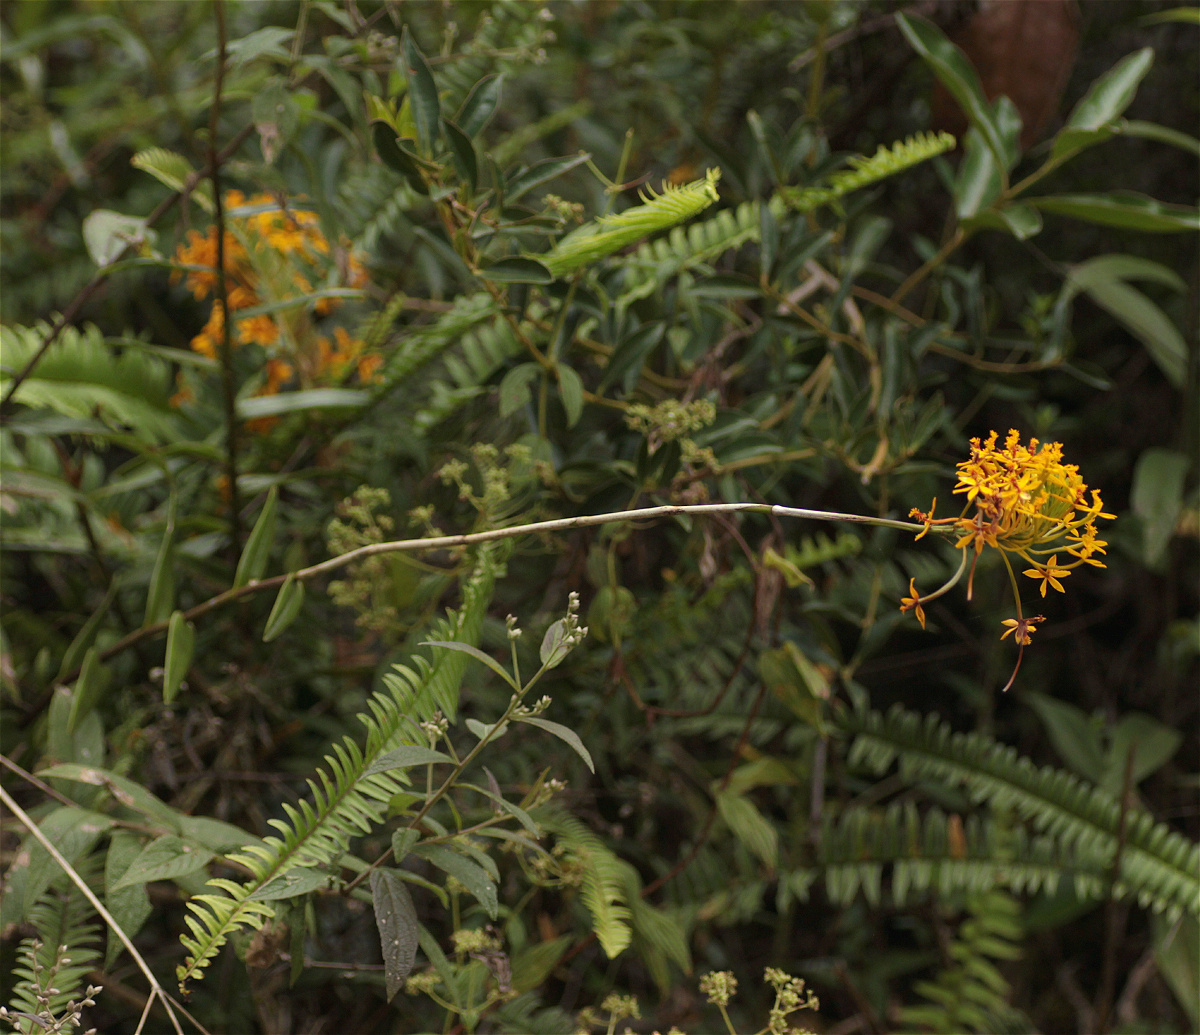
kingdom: Plantae
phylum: Tracheophyta
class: Liliopsida
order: Asparagales
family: Orchidaceae
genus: Epidendrum
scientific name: Epidendrum melinanthum
